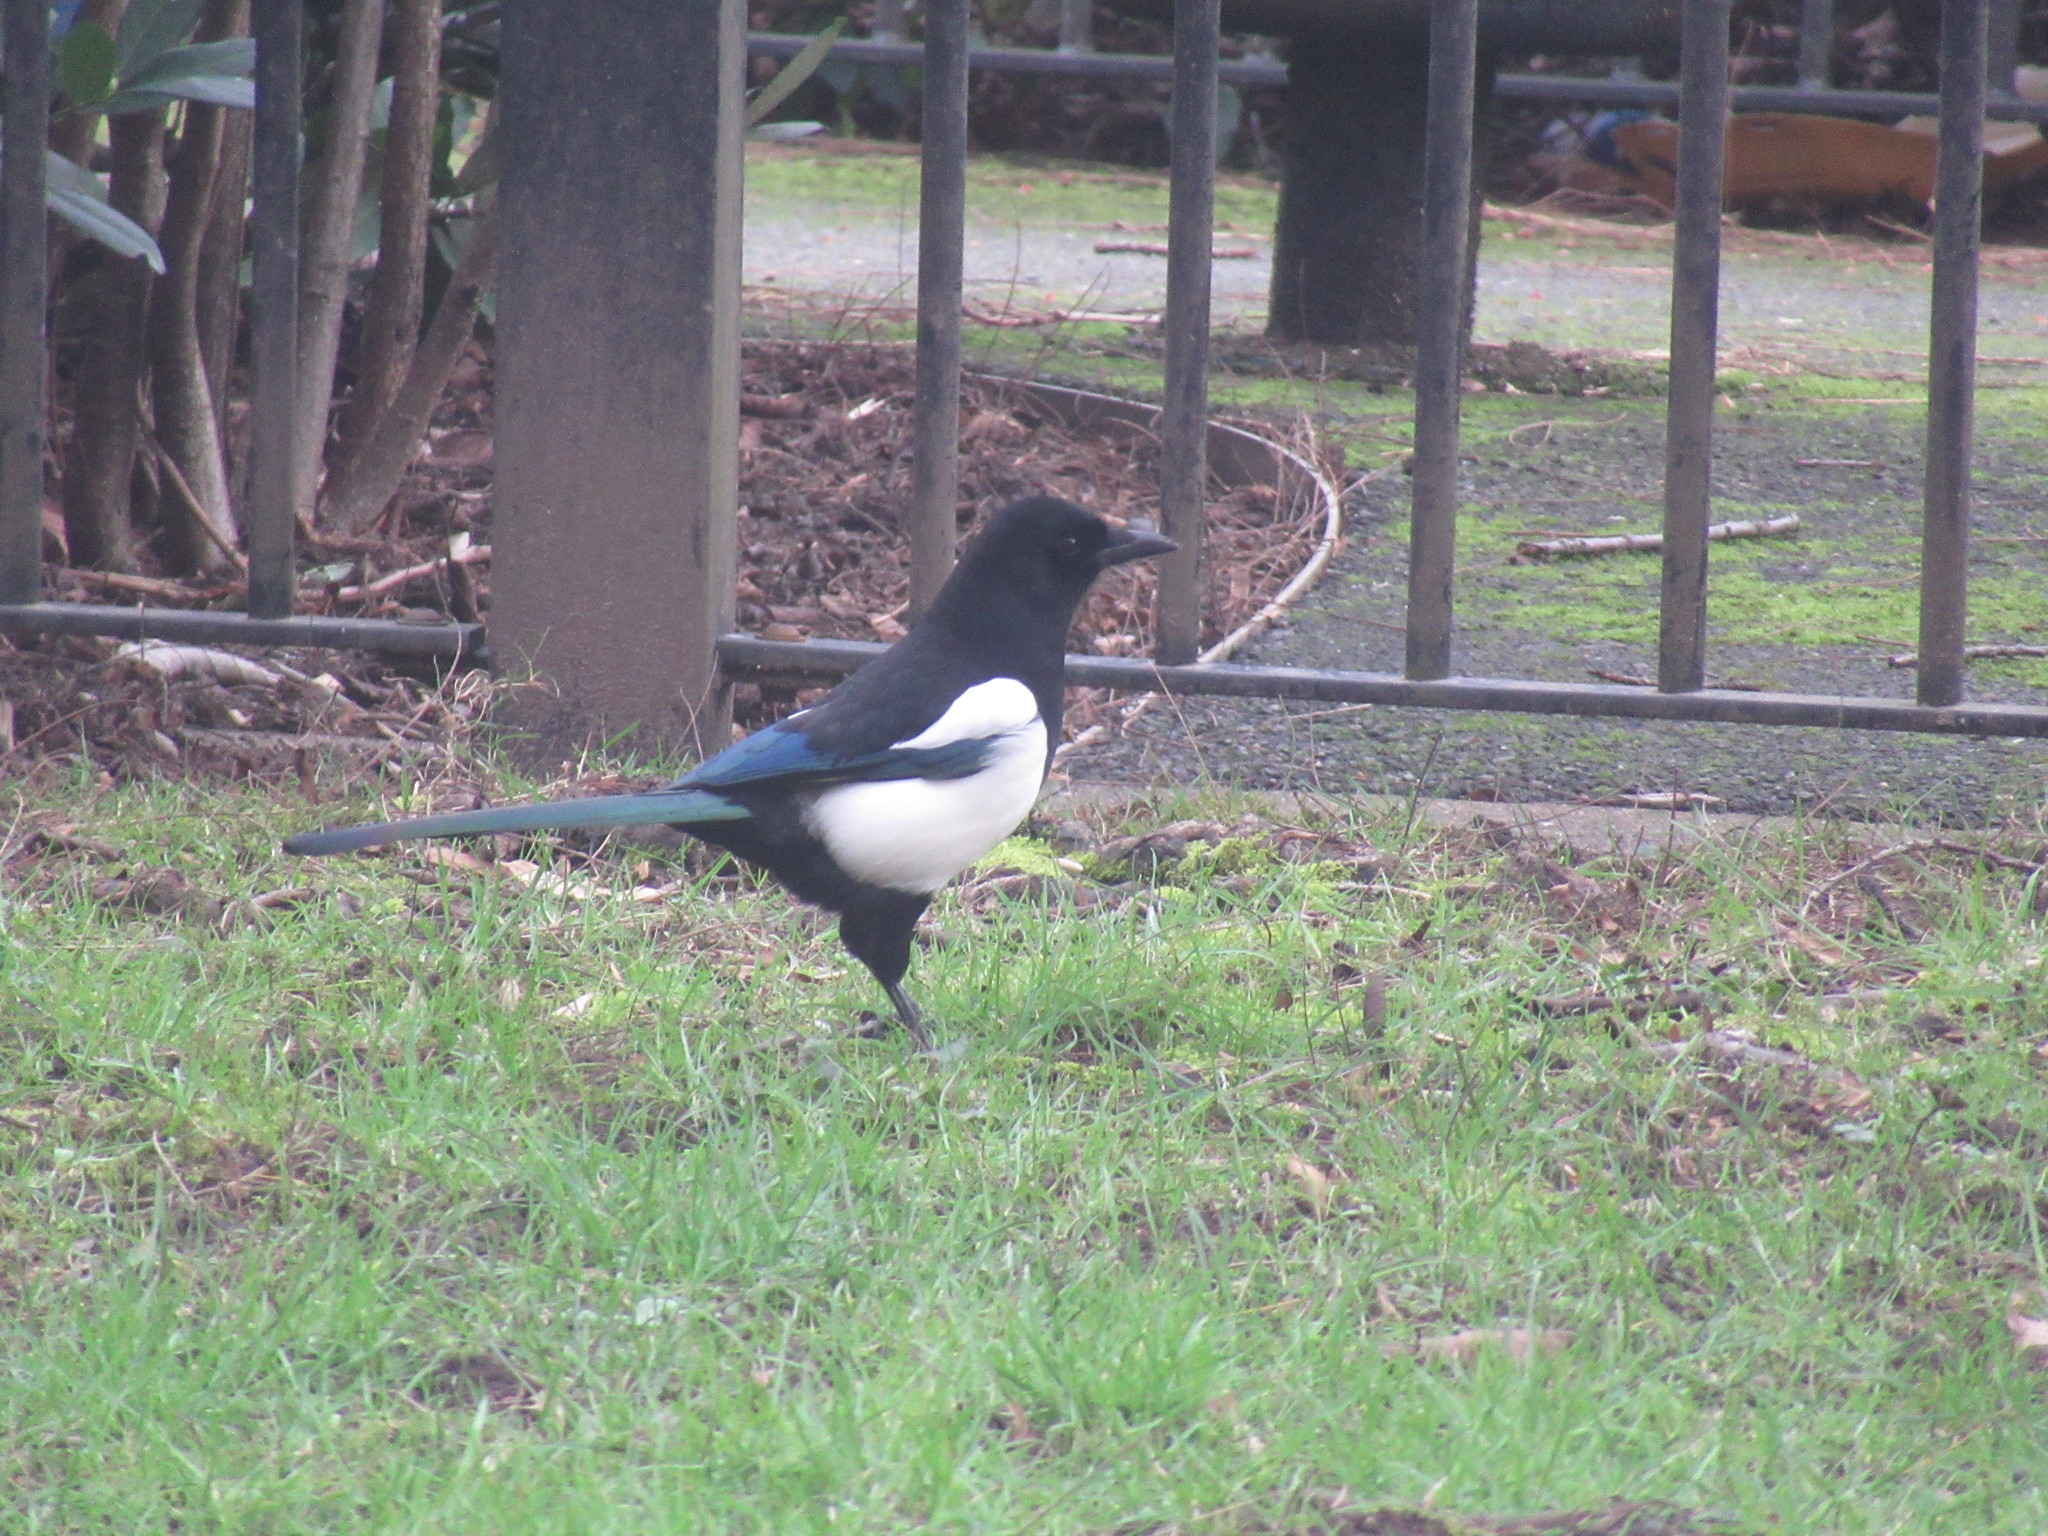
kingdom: Animalia
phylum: Chordata
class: Aves
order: Passeriformes
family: Corvidae
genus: Pica
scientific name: Pica pica
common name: Eurasian magpie
